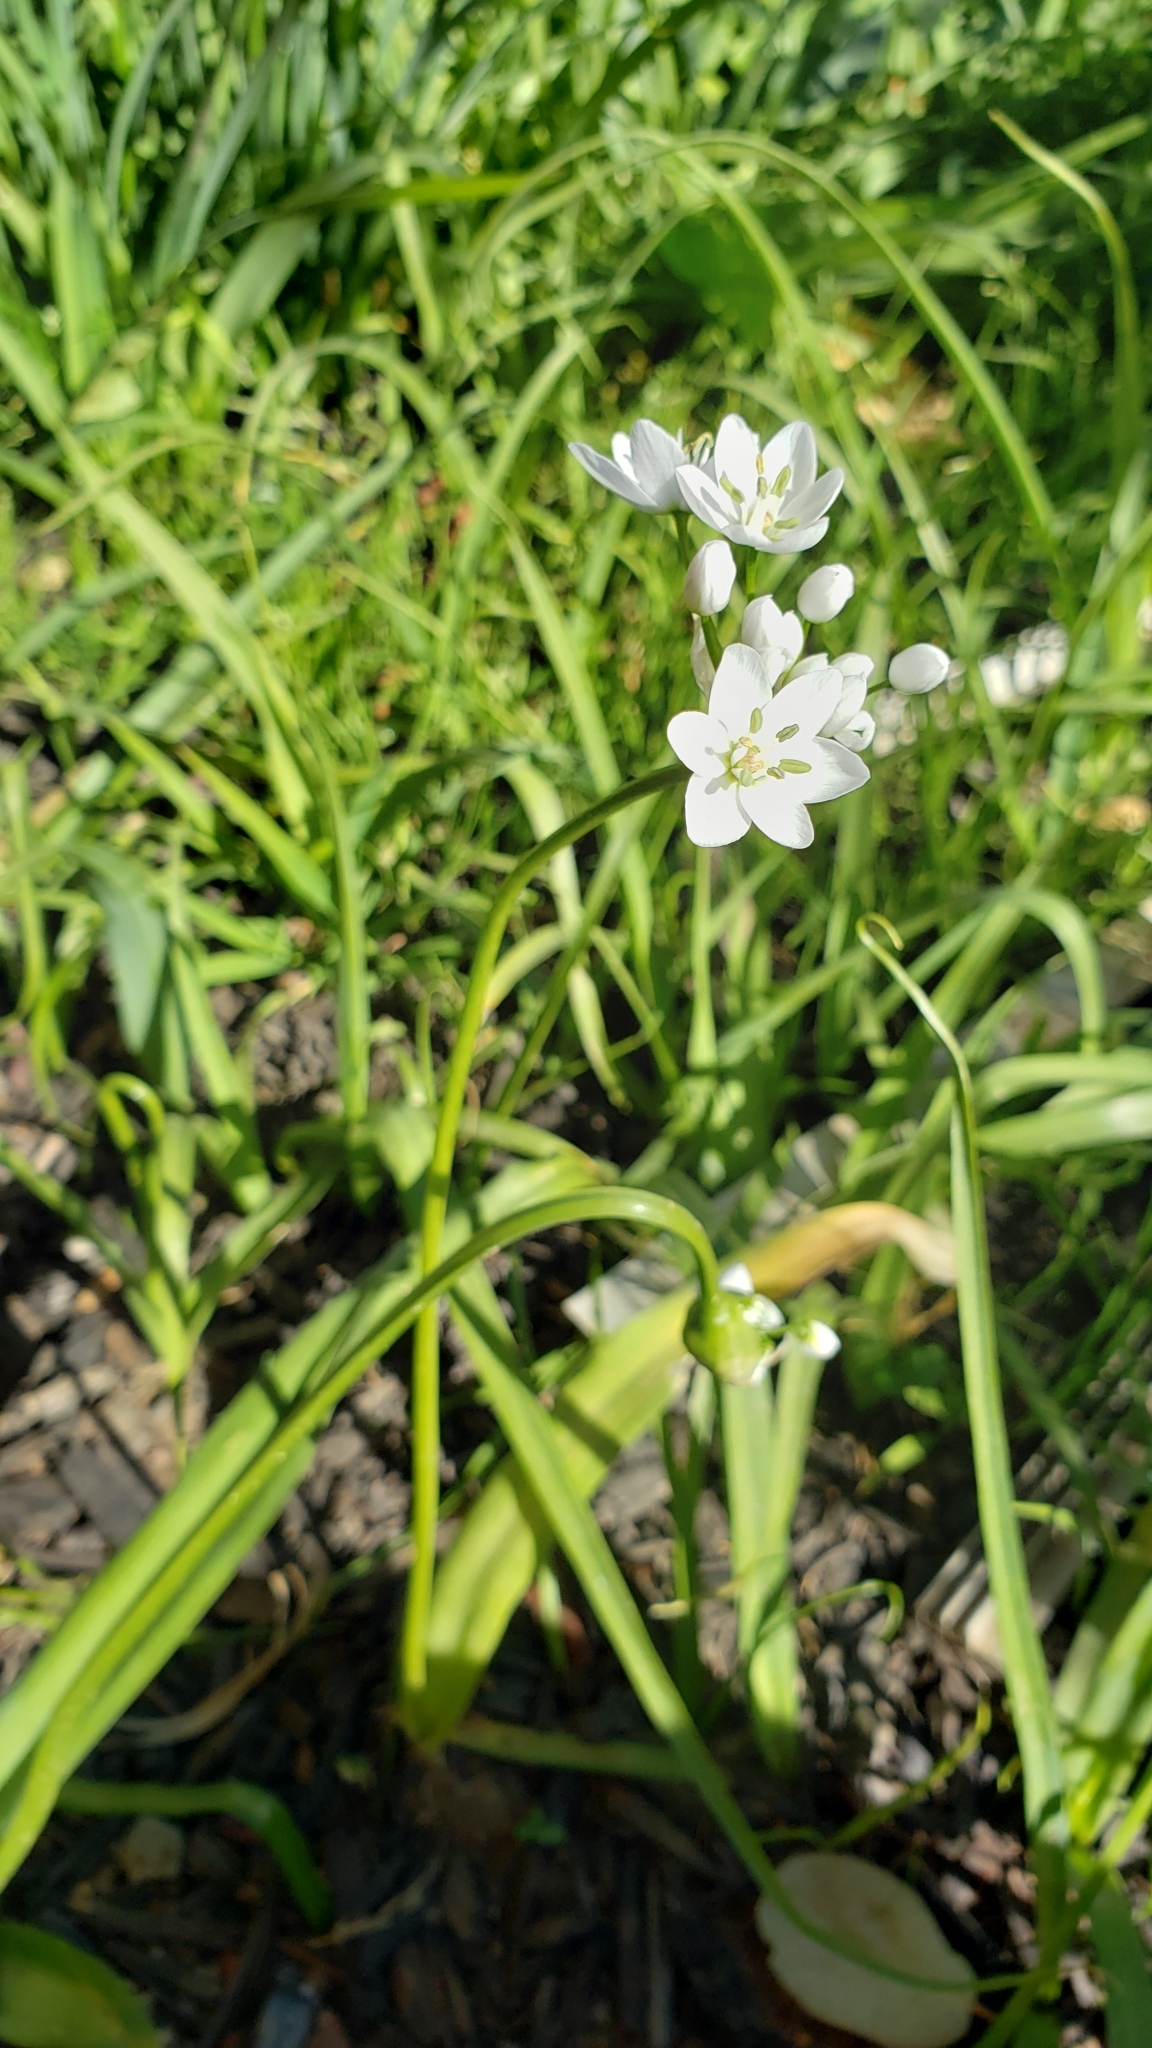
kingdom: Plantae
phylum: Tracheophyta
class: Liliopsida
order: Asparagales
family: Amaryllidaceae
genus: Allium
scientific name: Allium neapolitanum
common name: Neapolitan garlic
